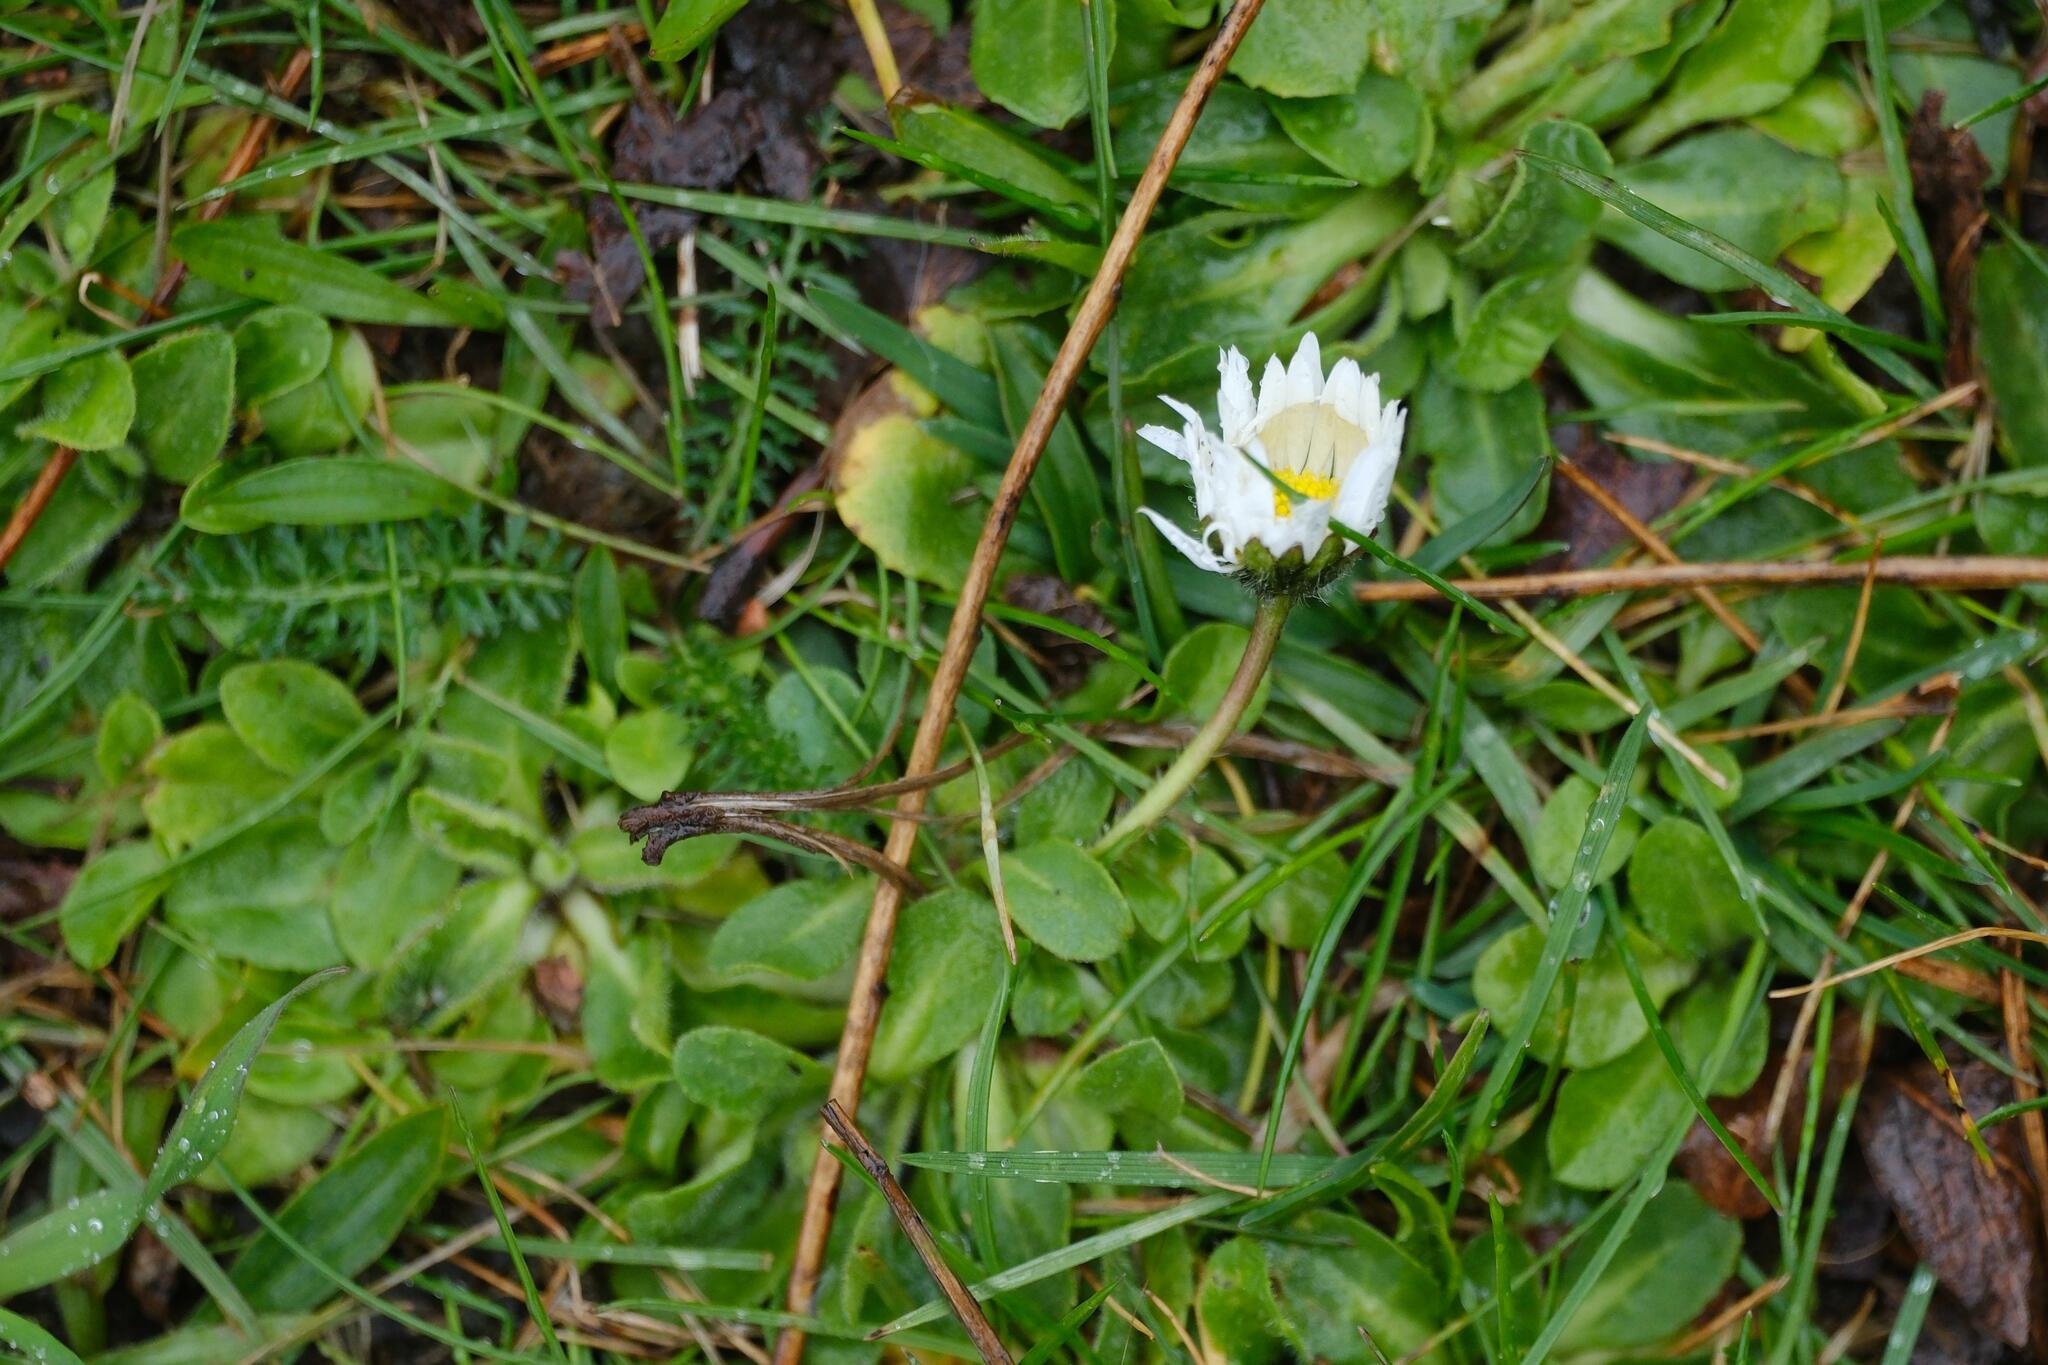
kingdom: Plantae
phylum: Tracheophyta
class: Magnoliopsida
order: Asterales
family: Asteraceae
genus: Bellis
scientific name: Bellis perennis
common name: Lawndaisy
